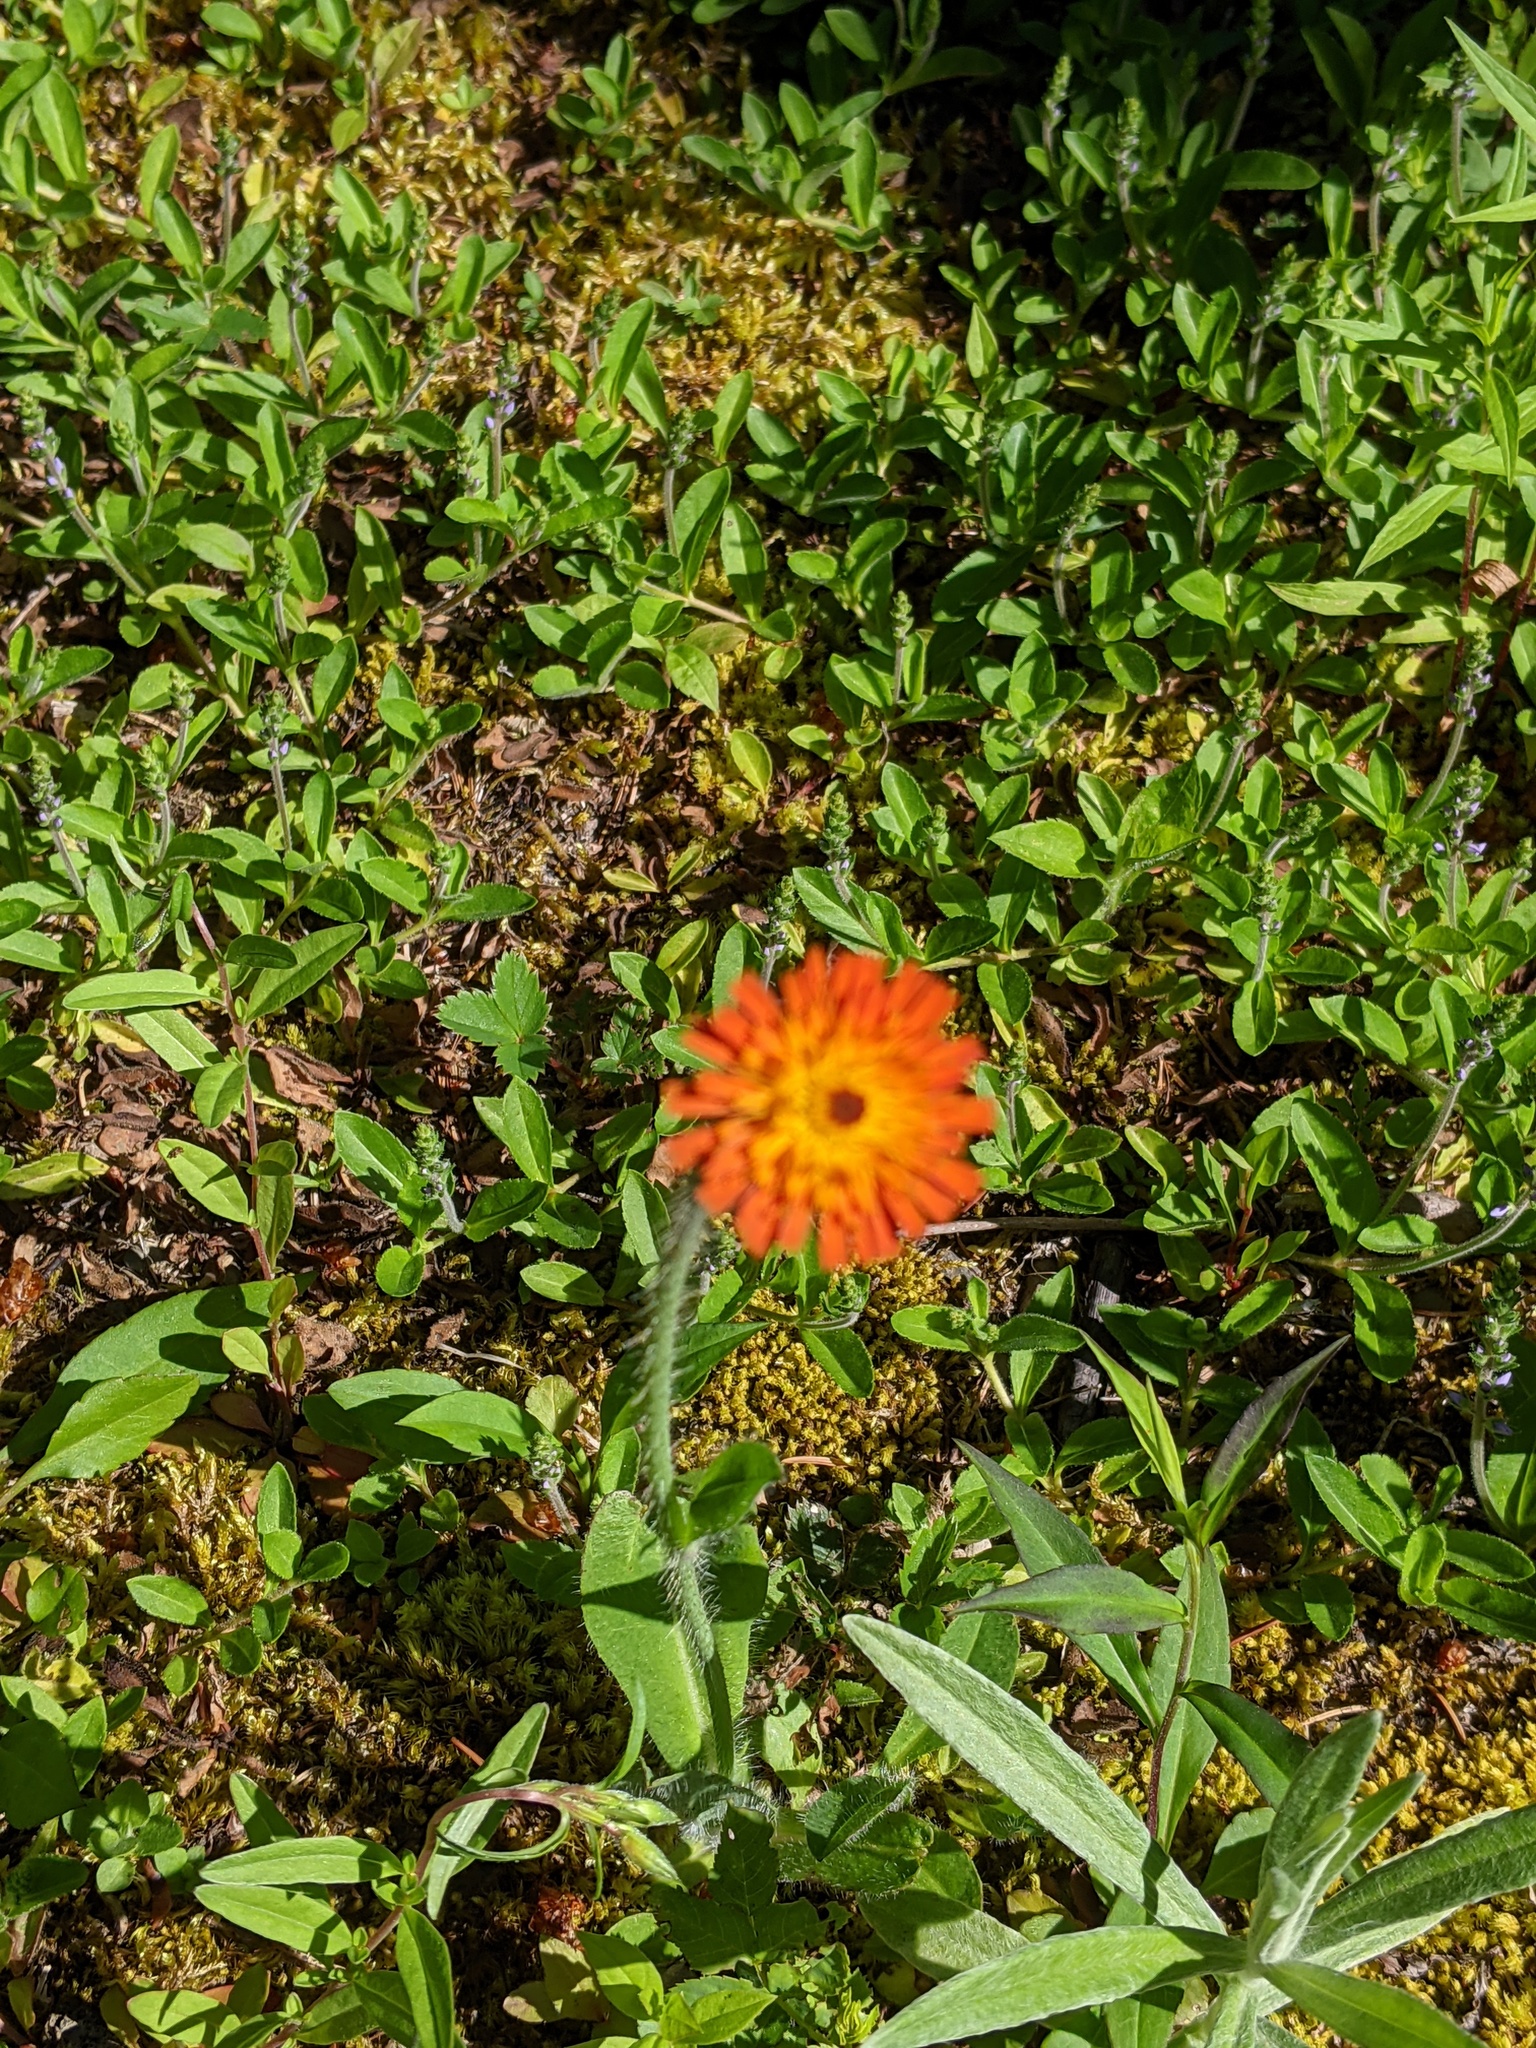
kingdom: Plantae
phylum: Tracheophyta
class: Magnoliopsida
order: Asterales
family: Asteraceae
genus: Pilosella
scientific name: Pilosella aurantiaca
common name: Fox-and-cubs
